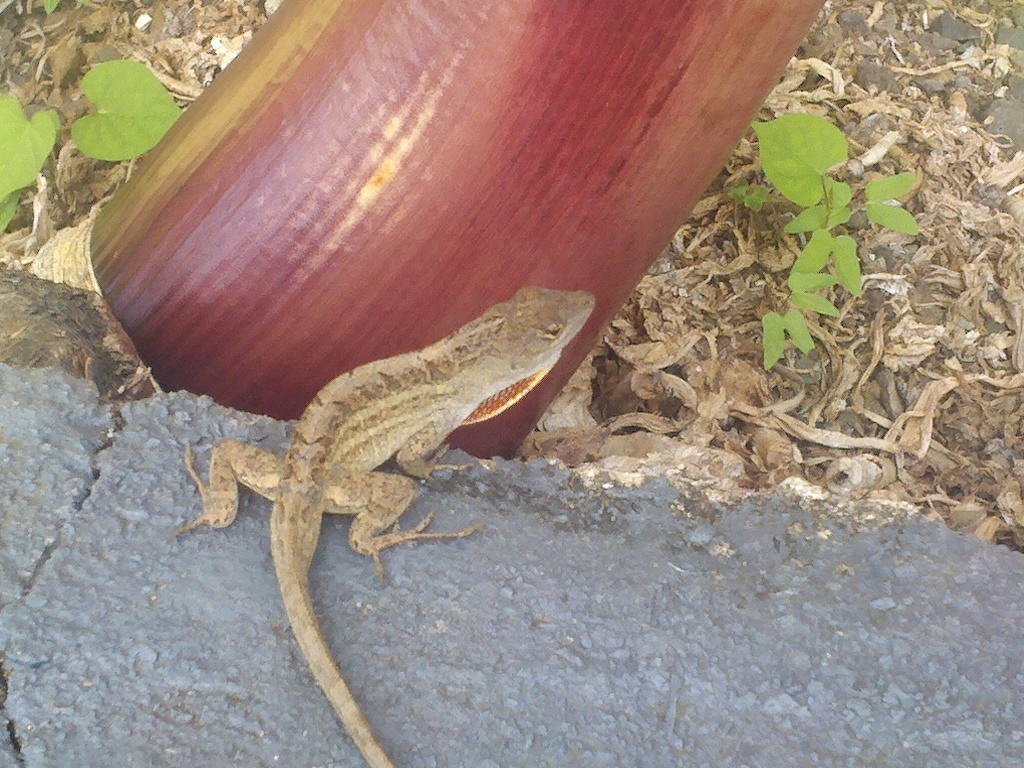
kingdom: Animalia
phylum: Chordata
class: Squamata
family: Dactyloidae
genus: Anolis
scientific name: Anolis sagrei
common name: Brown anole
